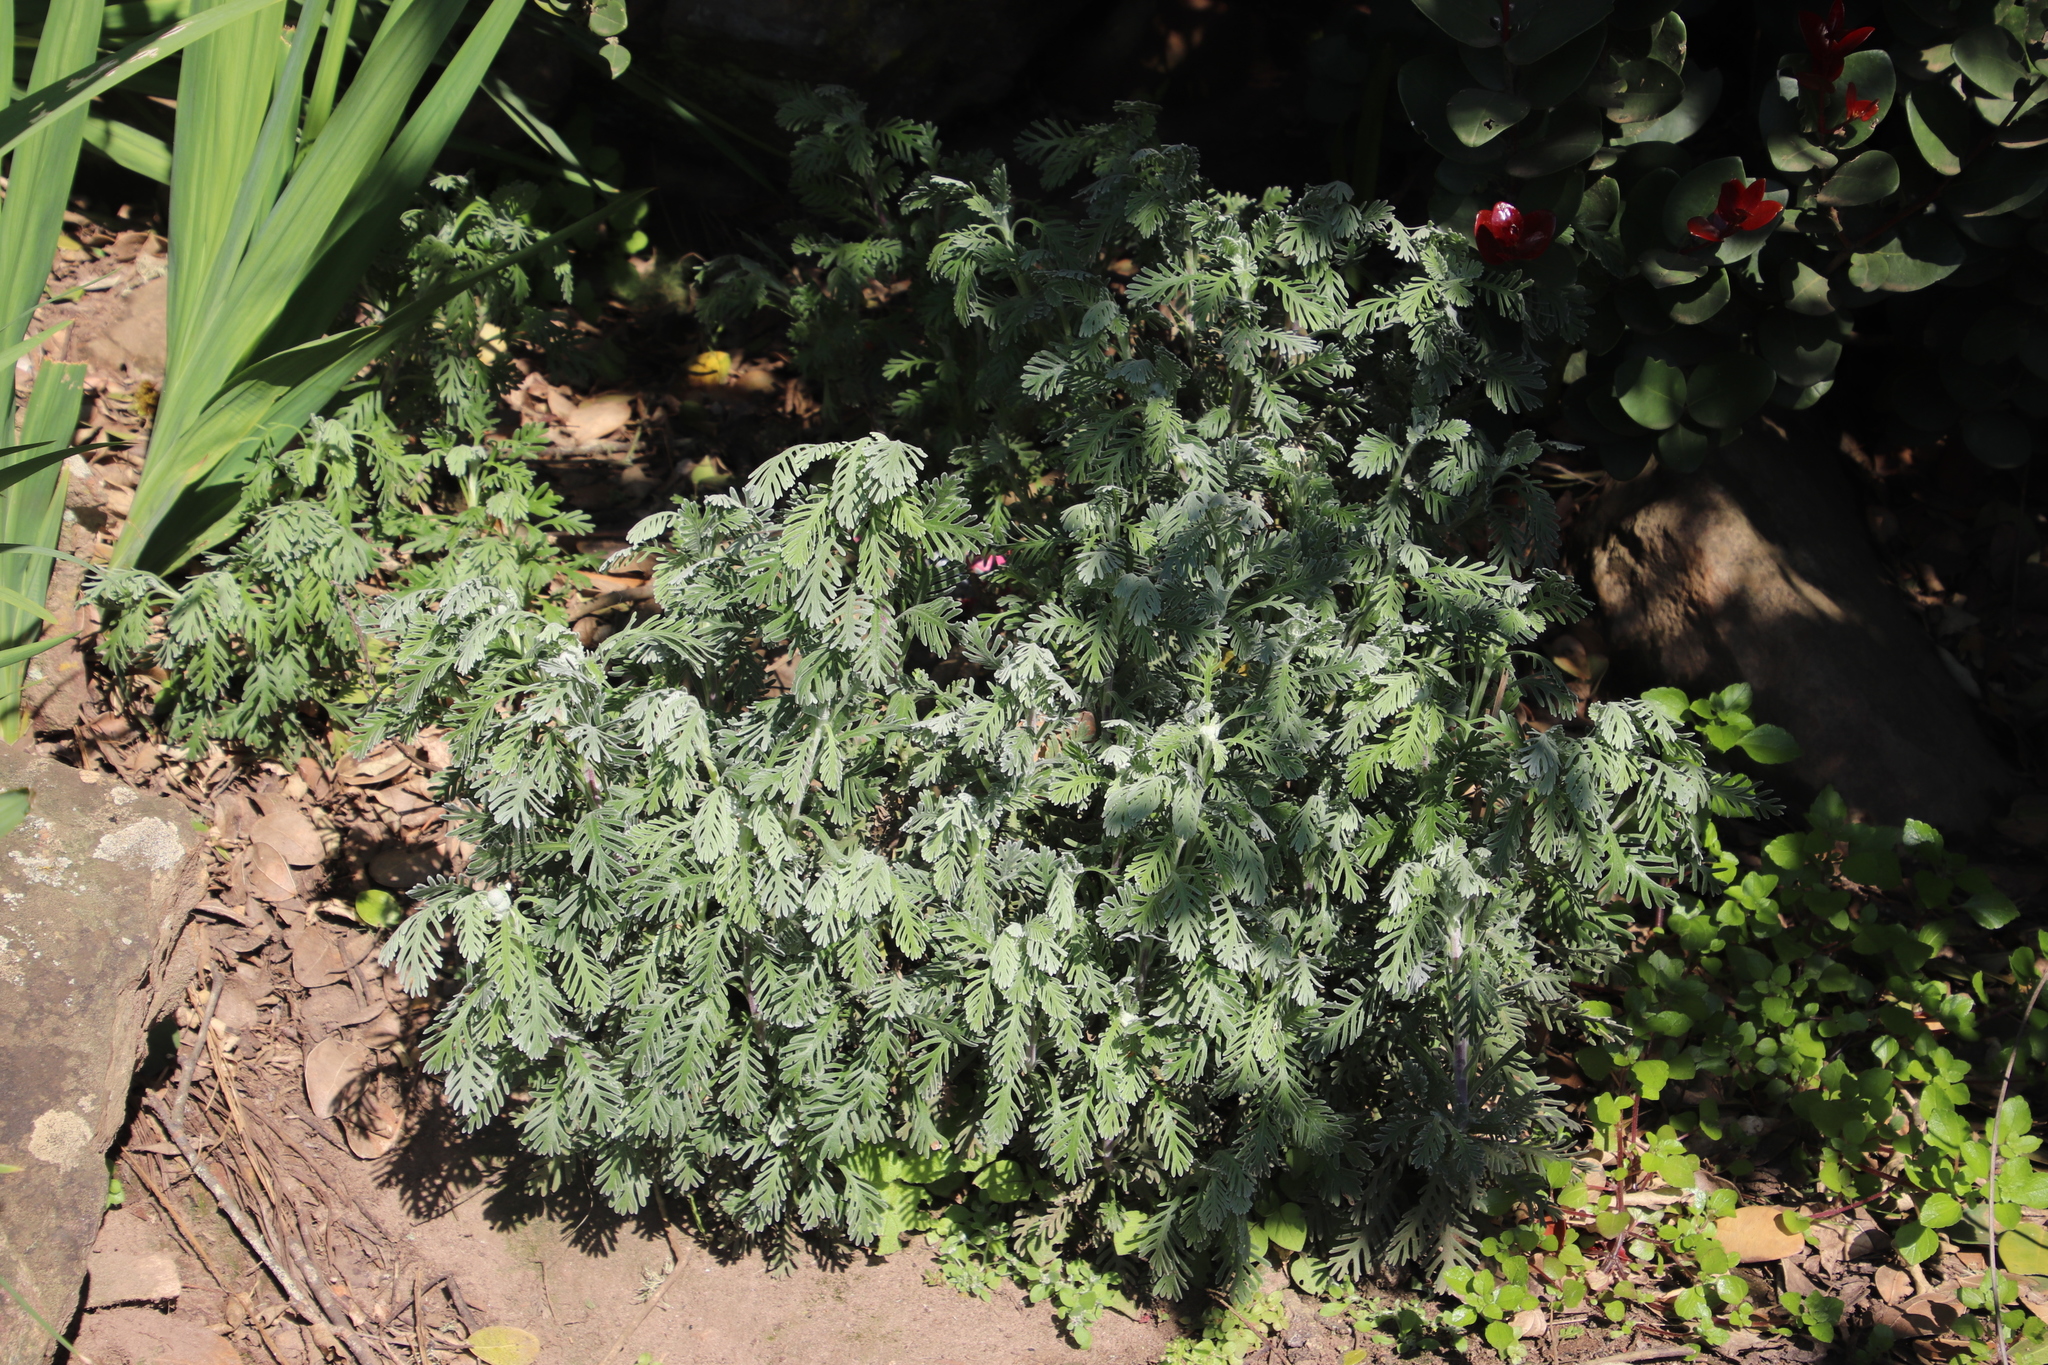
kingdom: Plantae
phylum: Tracheophyta
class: Magnoliopsida
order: Asterales
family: Asteraceae
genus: Euryops
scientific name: Euryops pectinatus
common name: Gray-leaf euryops
